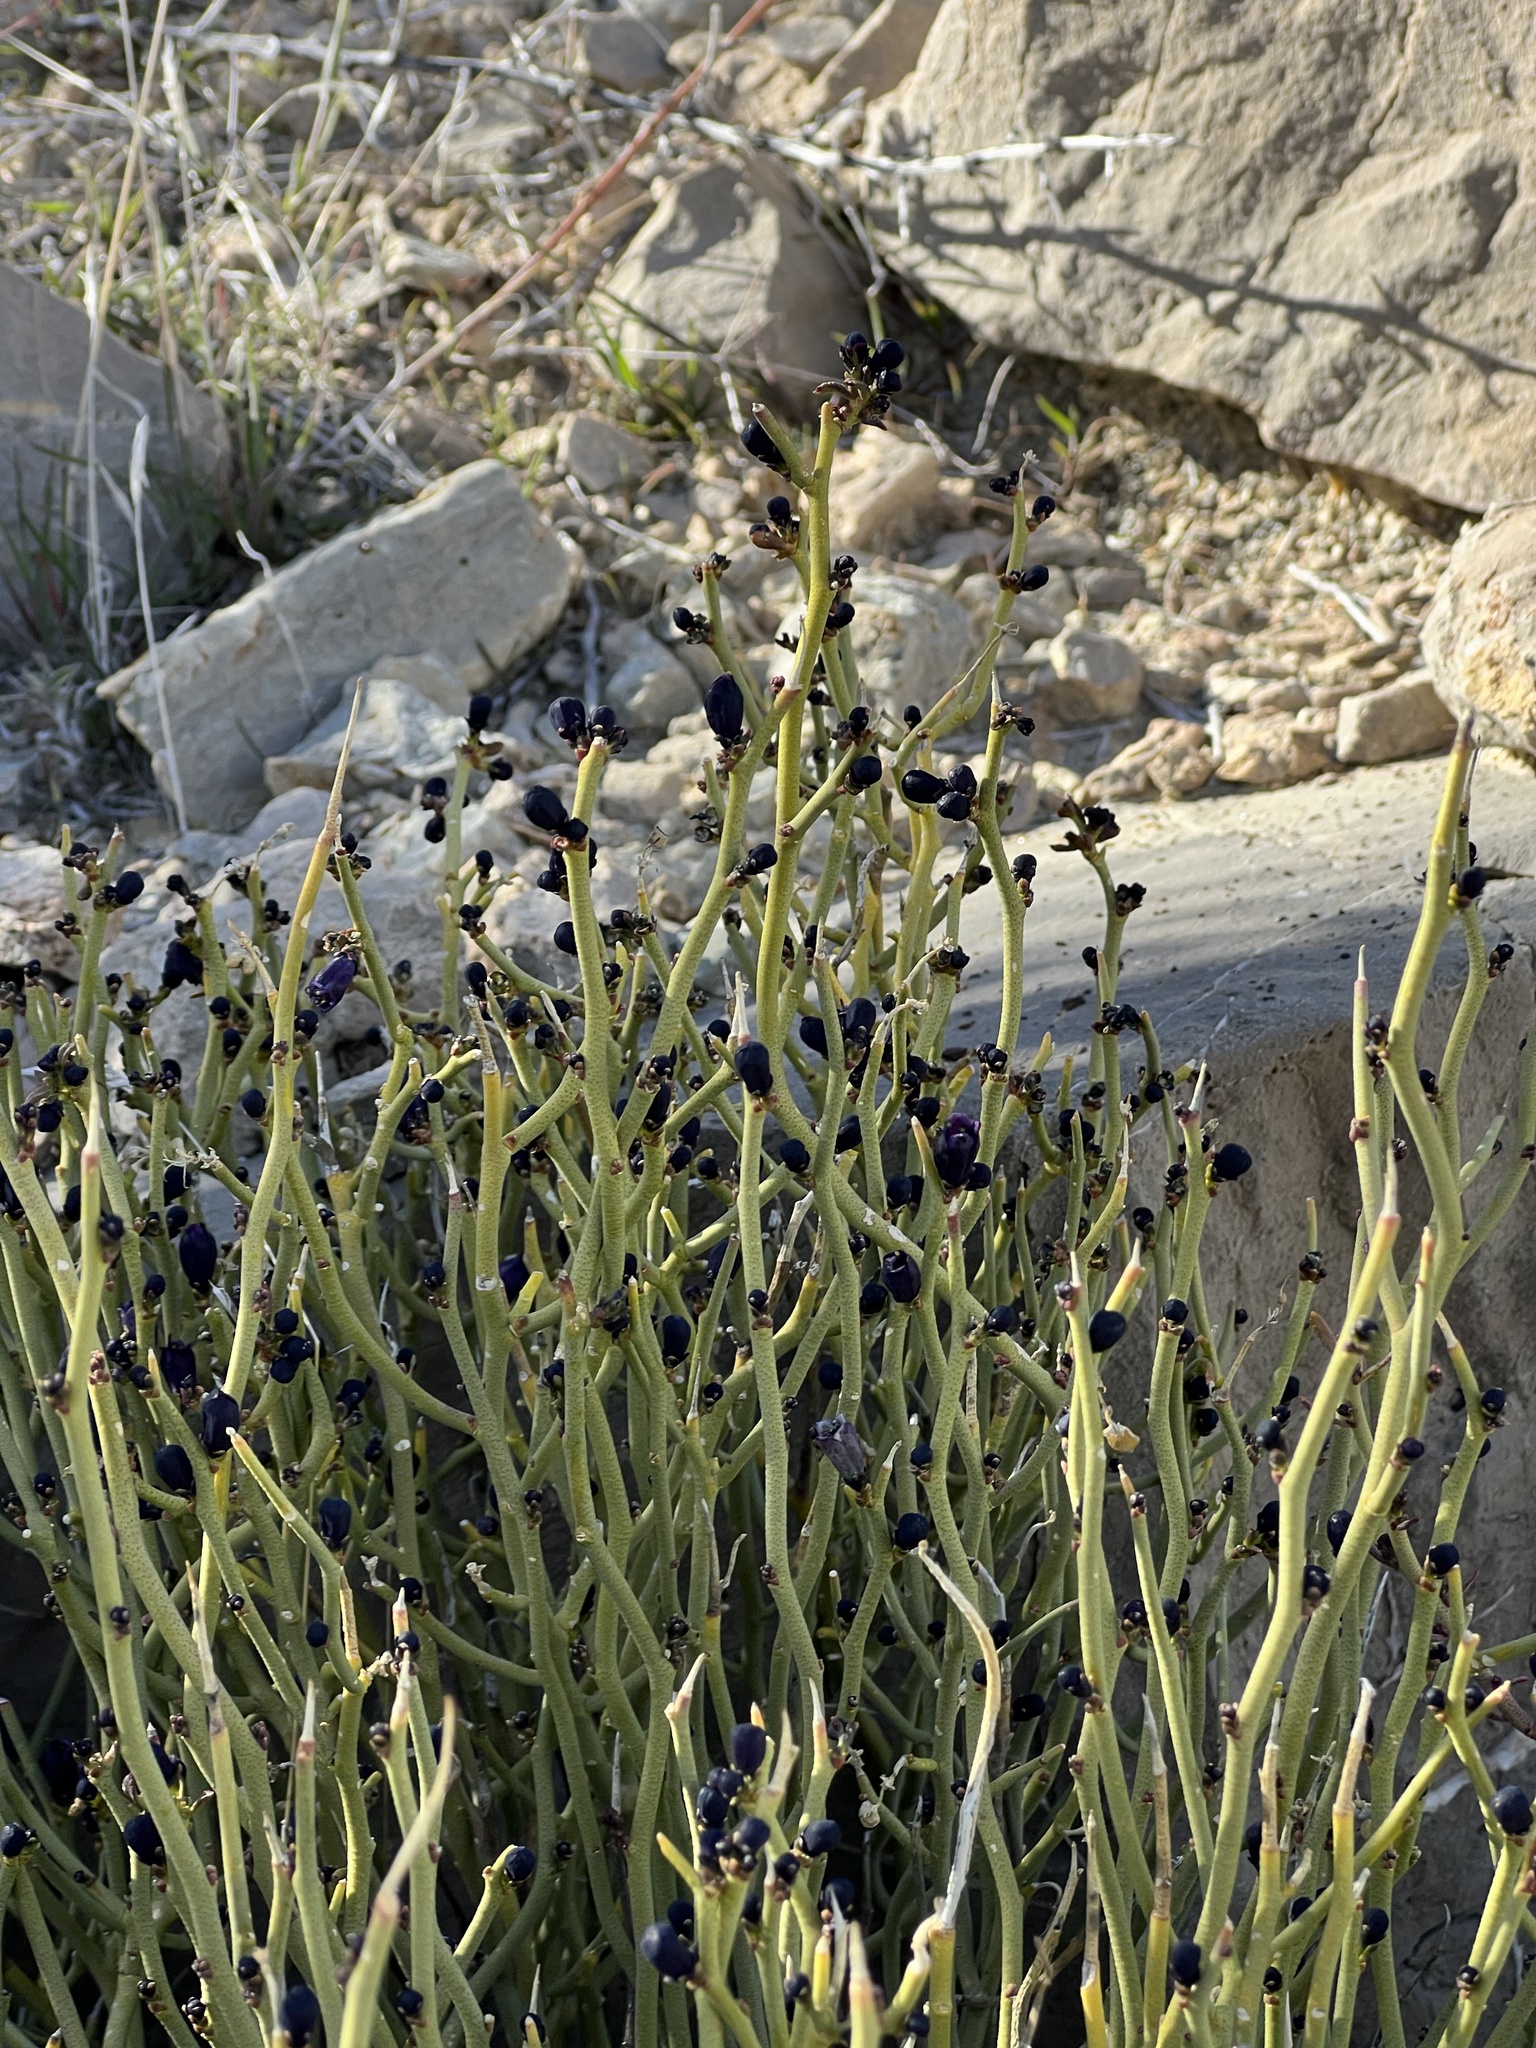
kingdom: Plantae
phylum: Tracheophyta
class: Magnoliopsida
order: Sapindales
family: Rutaceae
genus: Thamnosma
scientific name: Thamnosma montana
